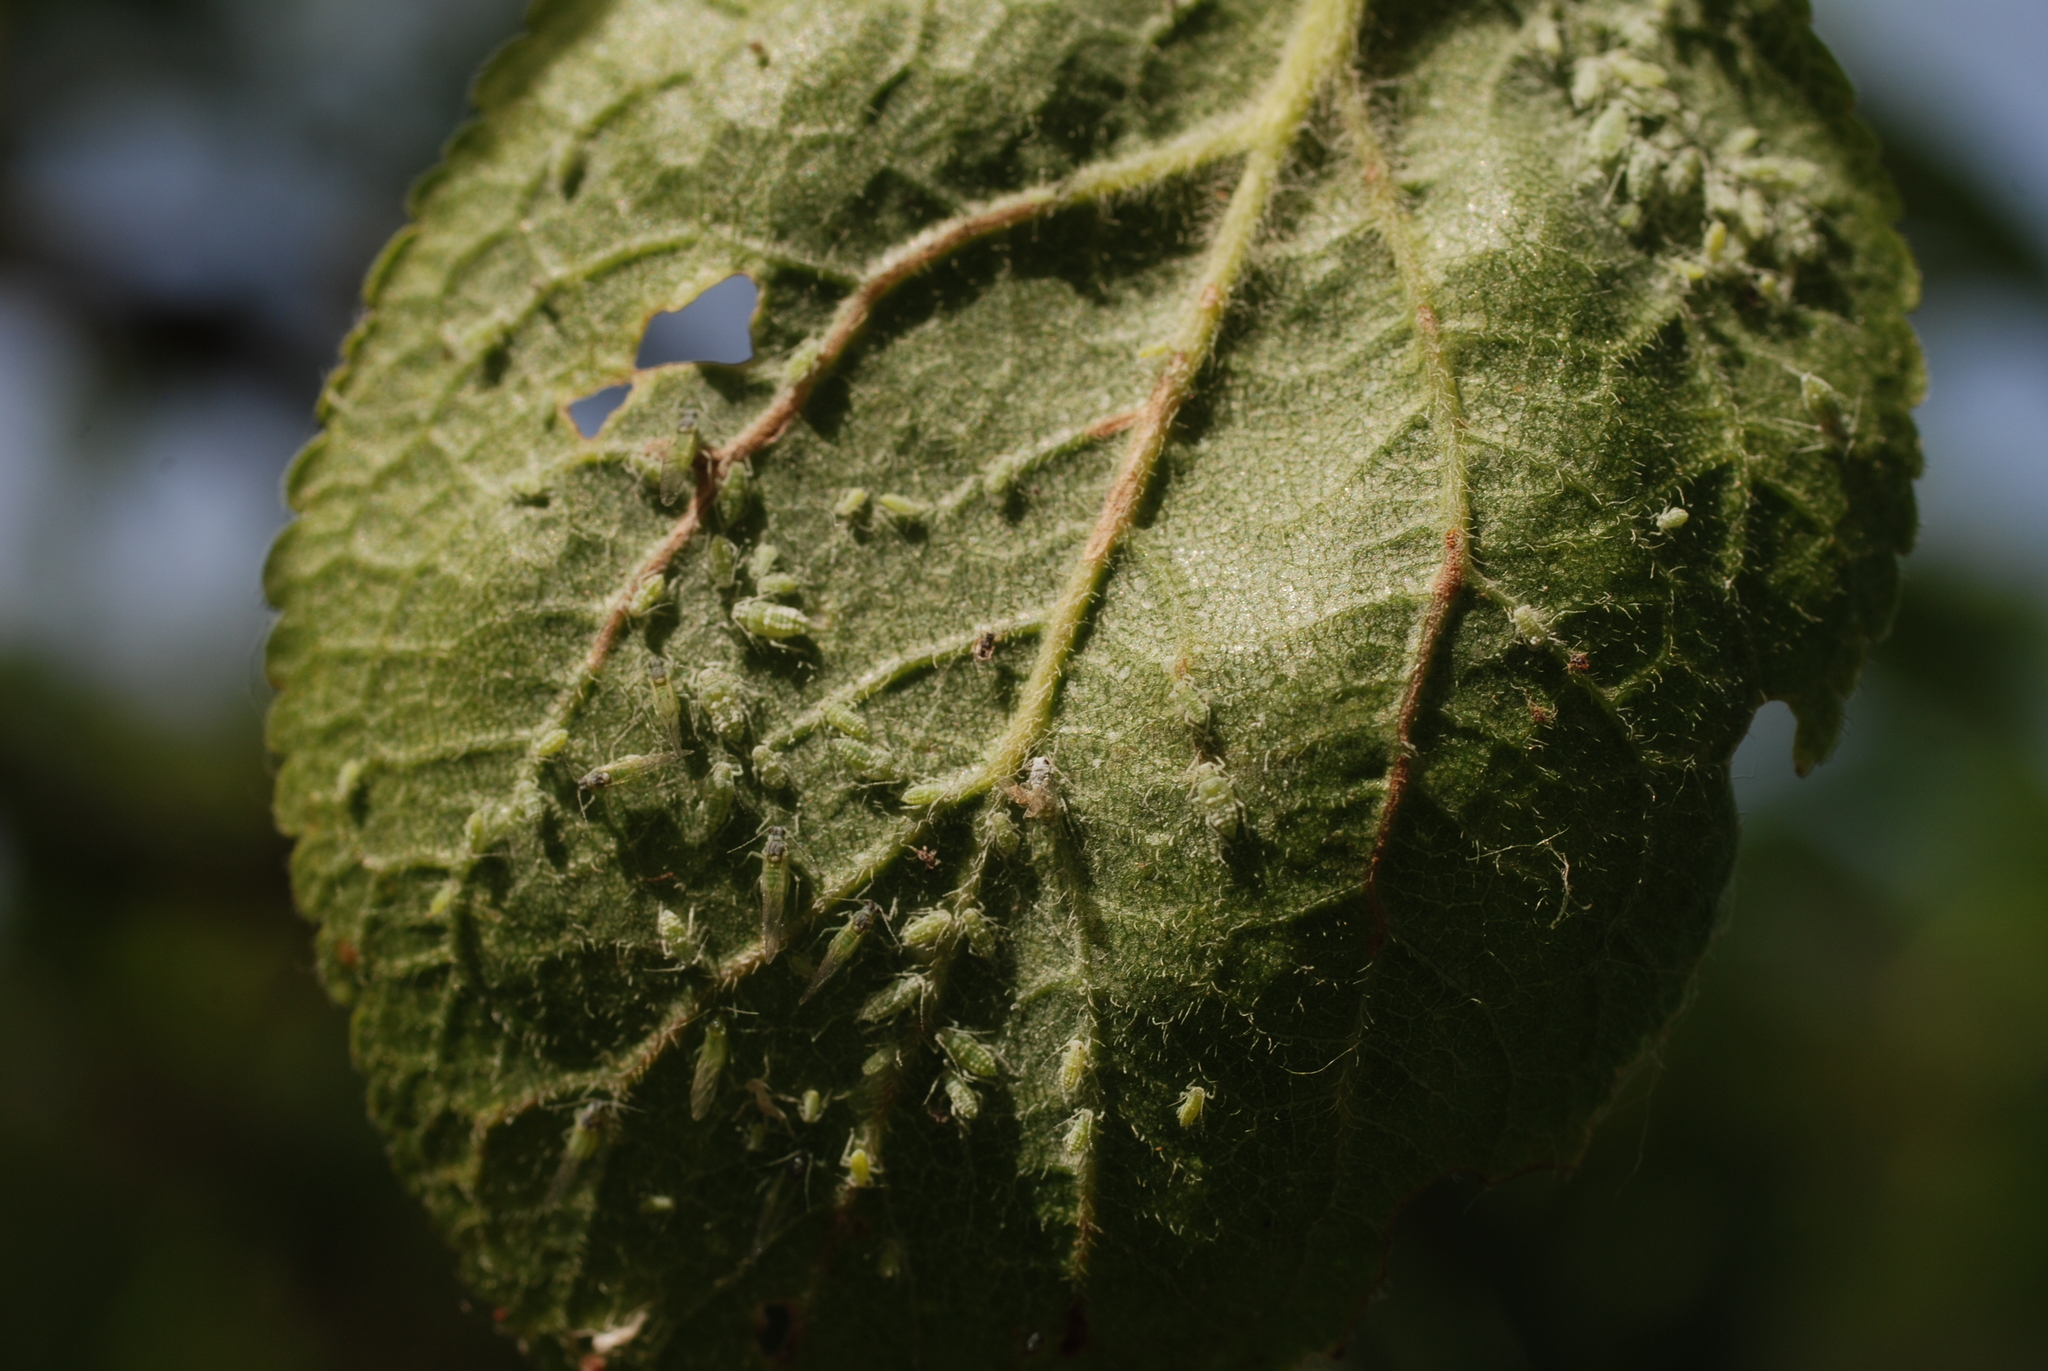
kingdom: Animalia
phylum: Arthropoda
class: Insecta
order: Hemiptera
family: Aphididae
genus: Hyalopterus
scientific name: Hyalopterus pruni
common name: Mealy plum aphid
